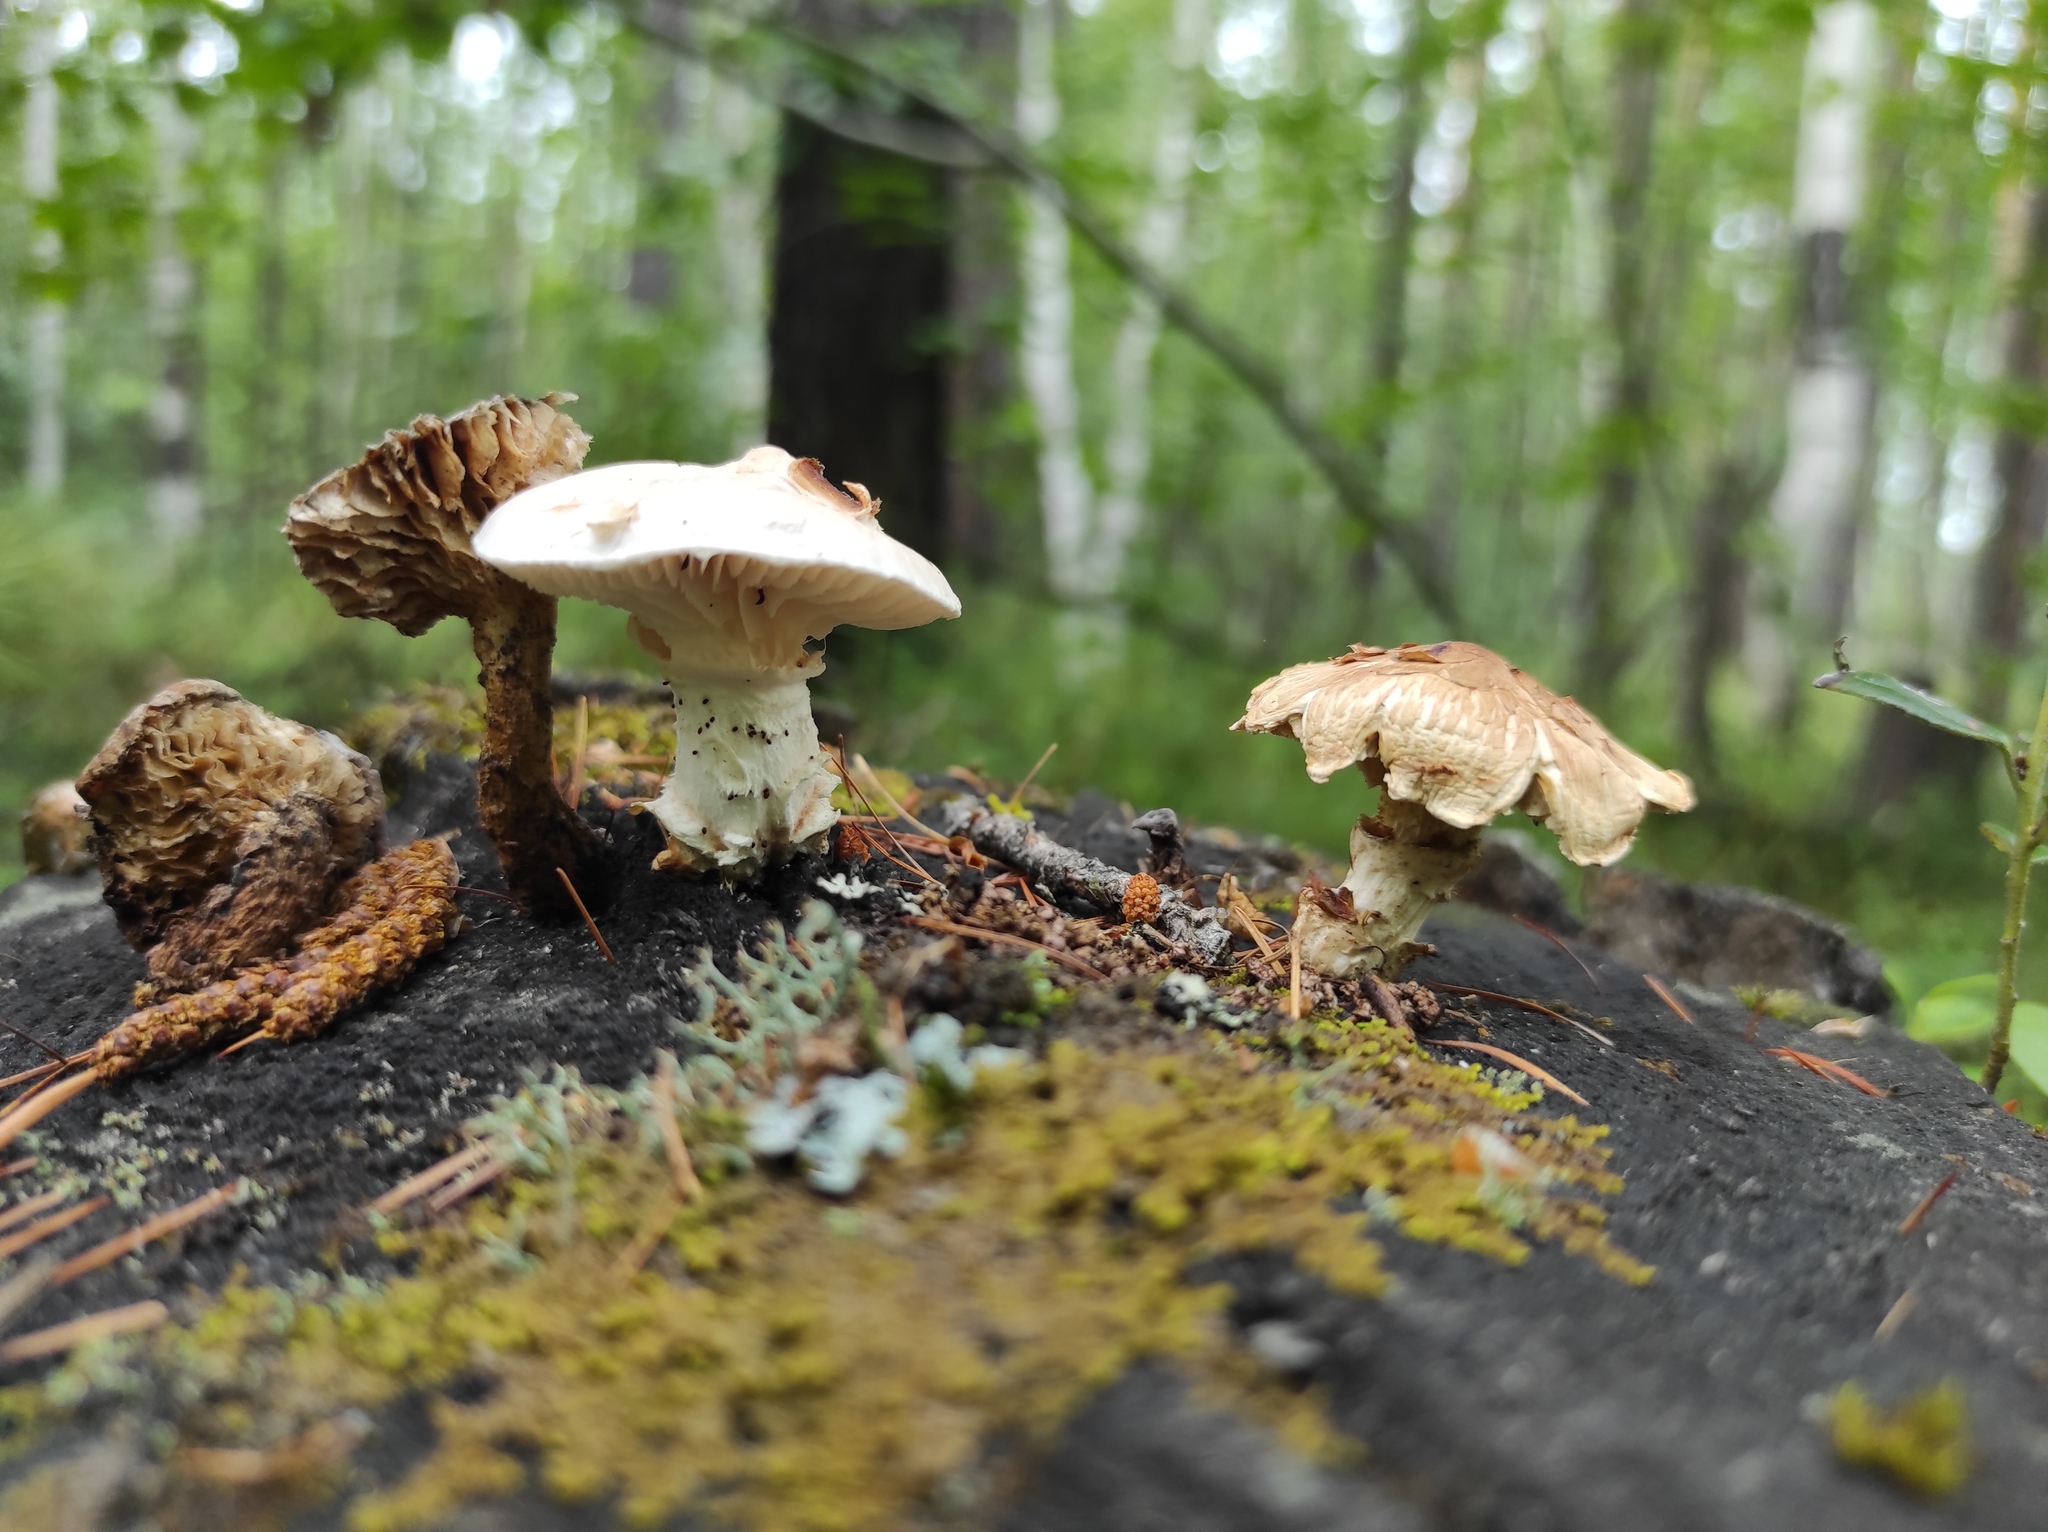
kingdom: Fungi
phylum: Basidiomycota
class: Agaricomycetes
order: Gloeophyllales
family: Gloeophyllaceae
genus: Neolentinus
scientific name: Neolentinus lepideus
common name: Scaly sawgill
